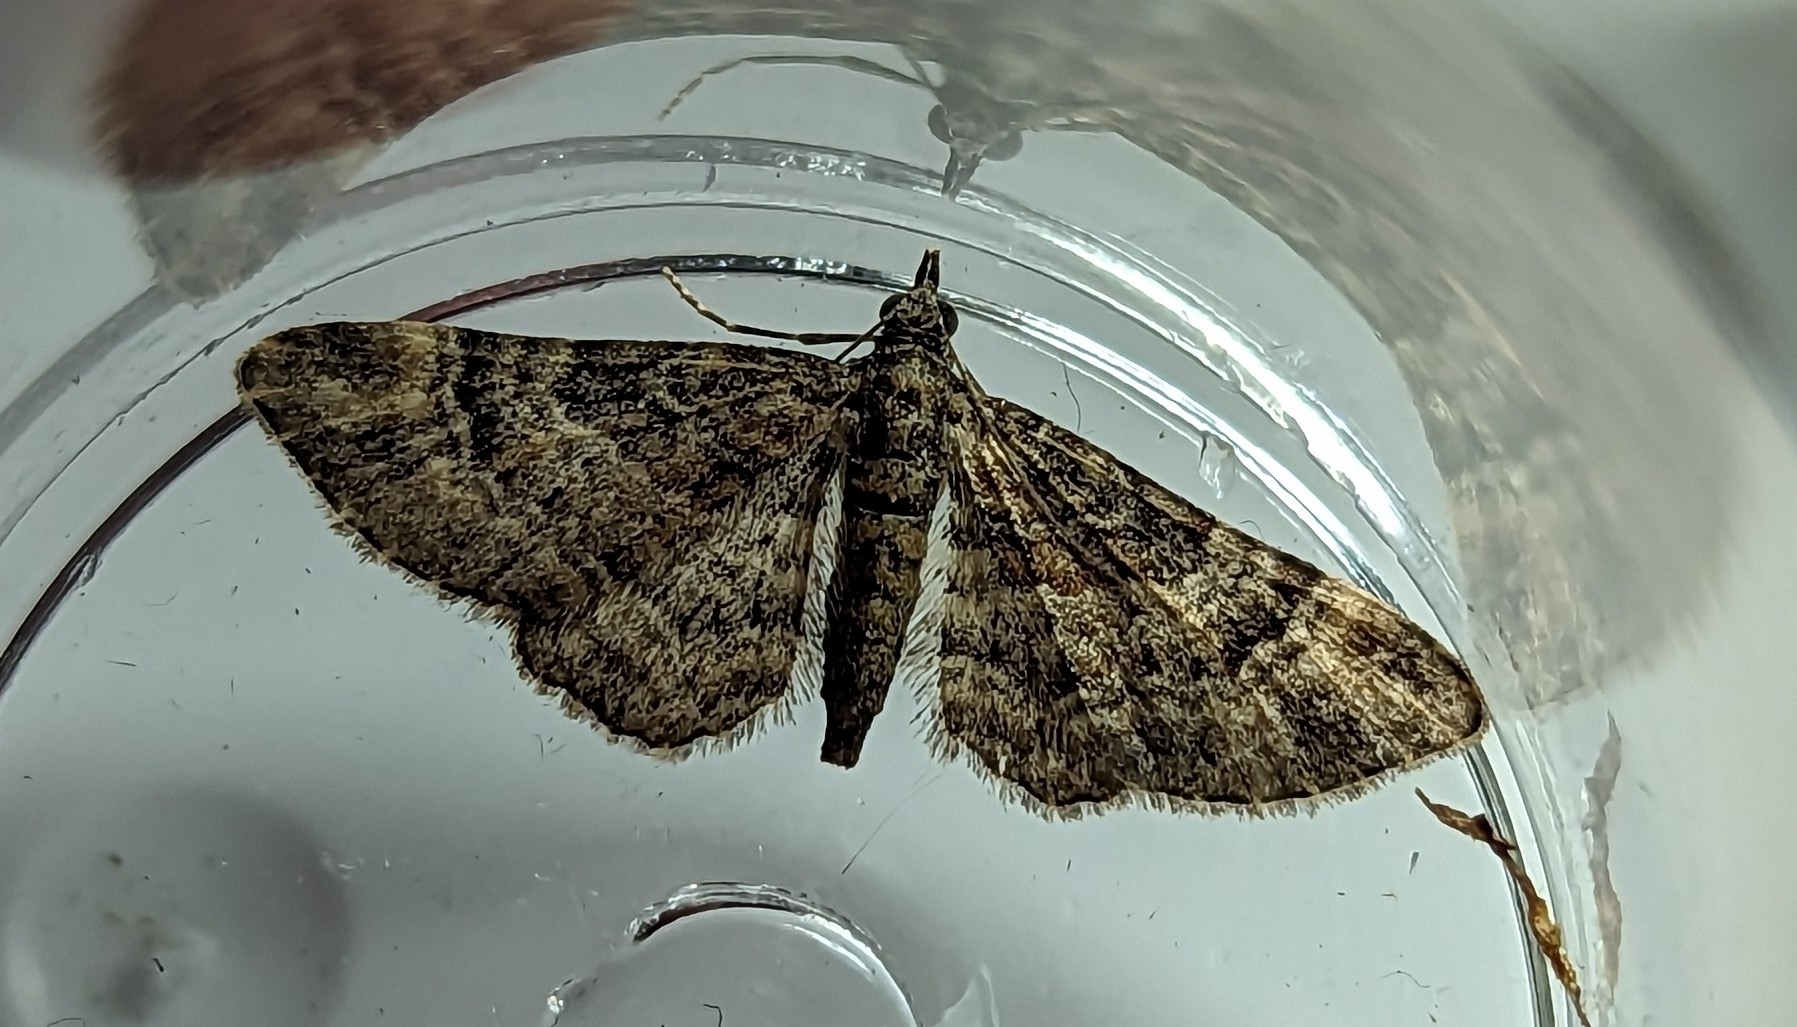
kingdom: Animalia
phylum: Arthropoda
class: Insecta
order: Lepidoptera
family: Geometridae
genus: Gymnoscelis
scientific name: Gymnoscelis rufifasciata
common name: Double-striped pug
